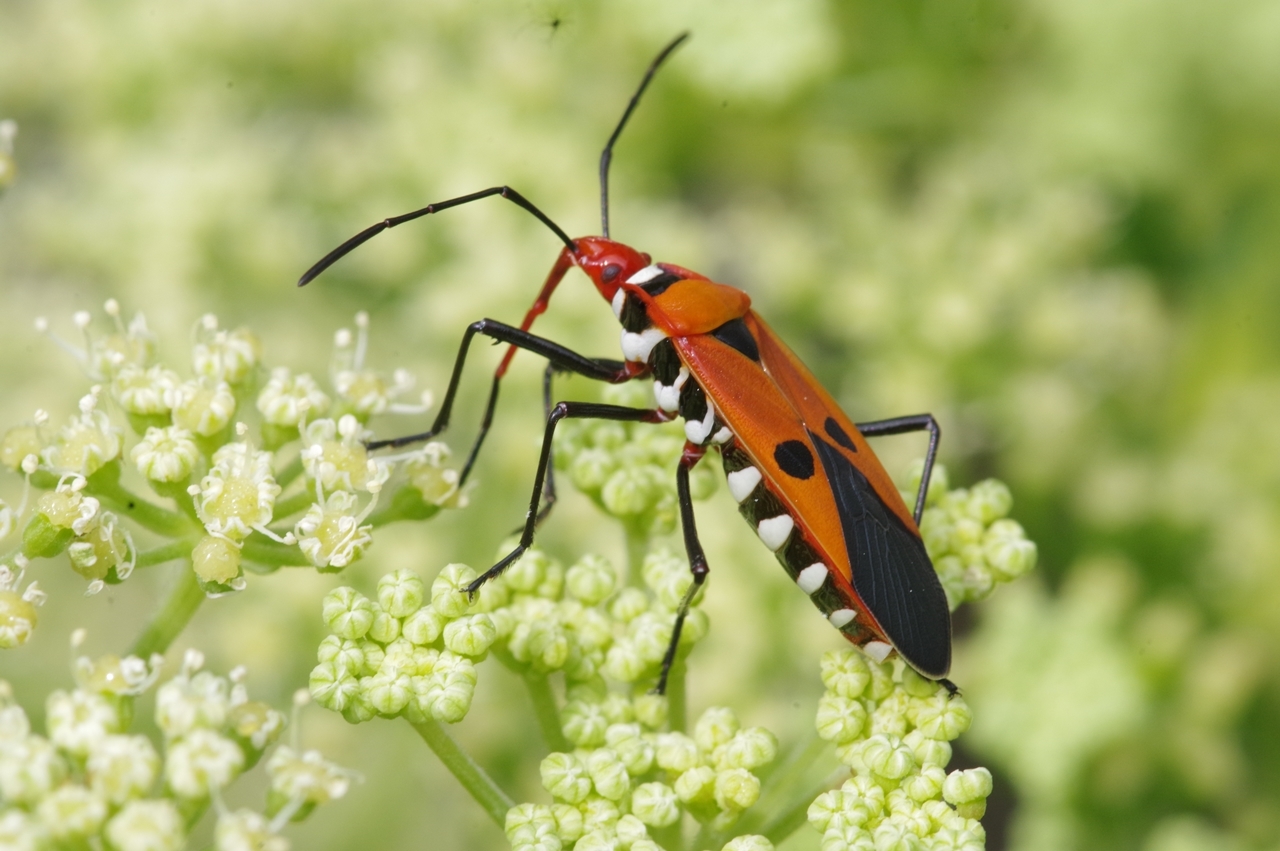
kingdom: Animalia
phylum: Arthropoda
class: Insecta
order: Hemiptera
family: Pyrrhocoridae
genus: Dysdercus
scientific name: Dysdercus cingulatus
